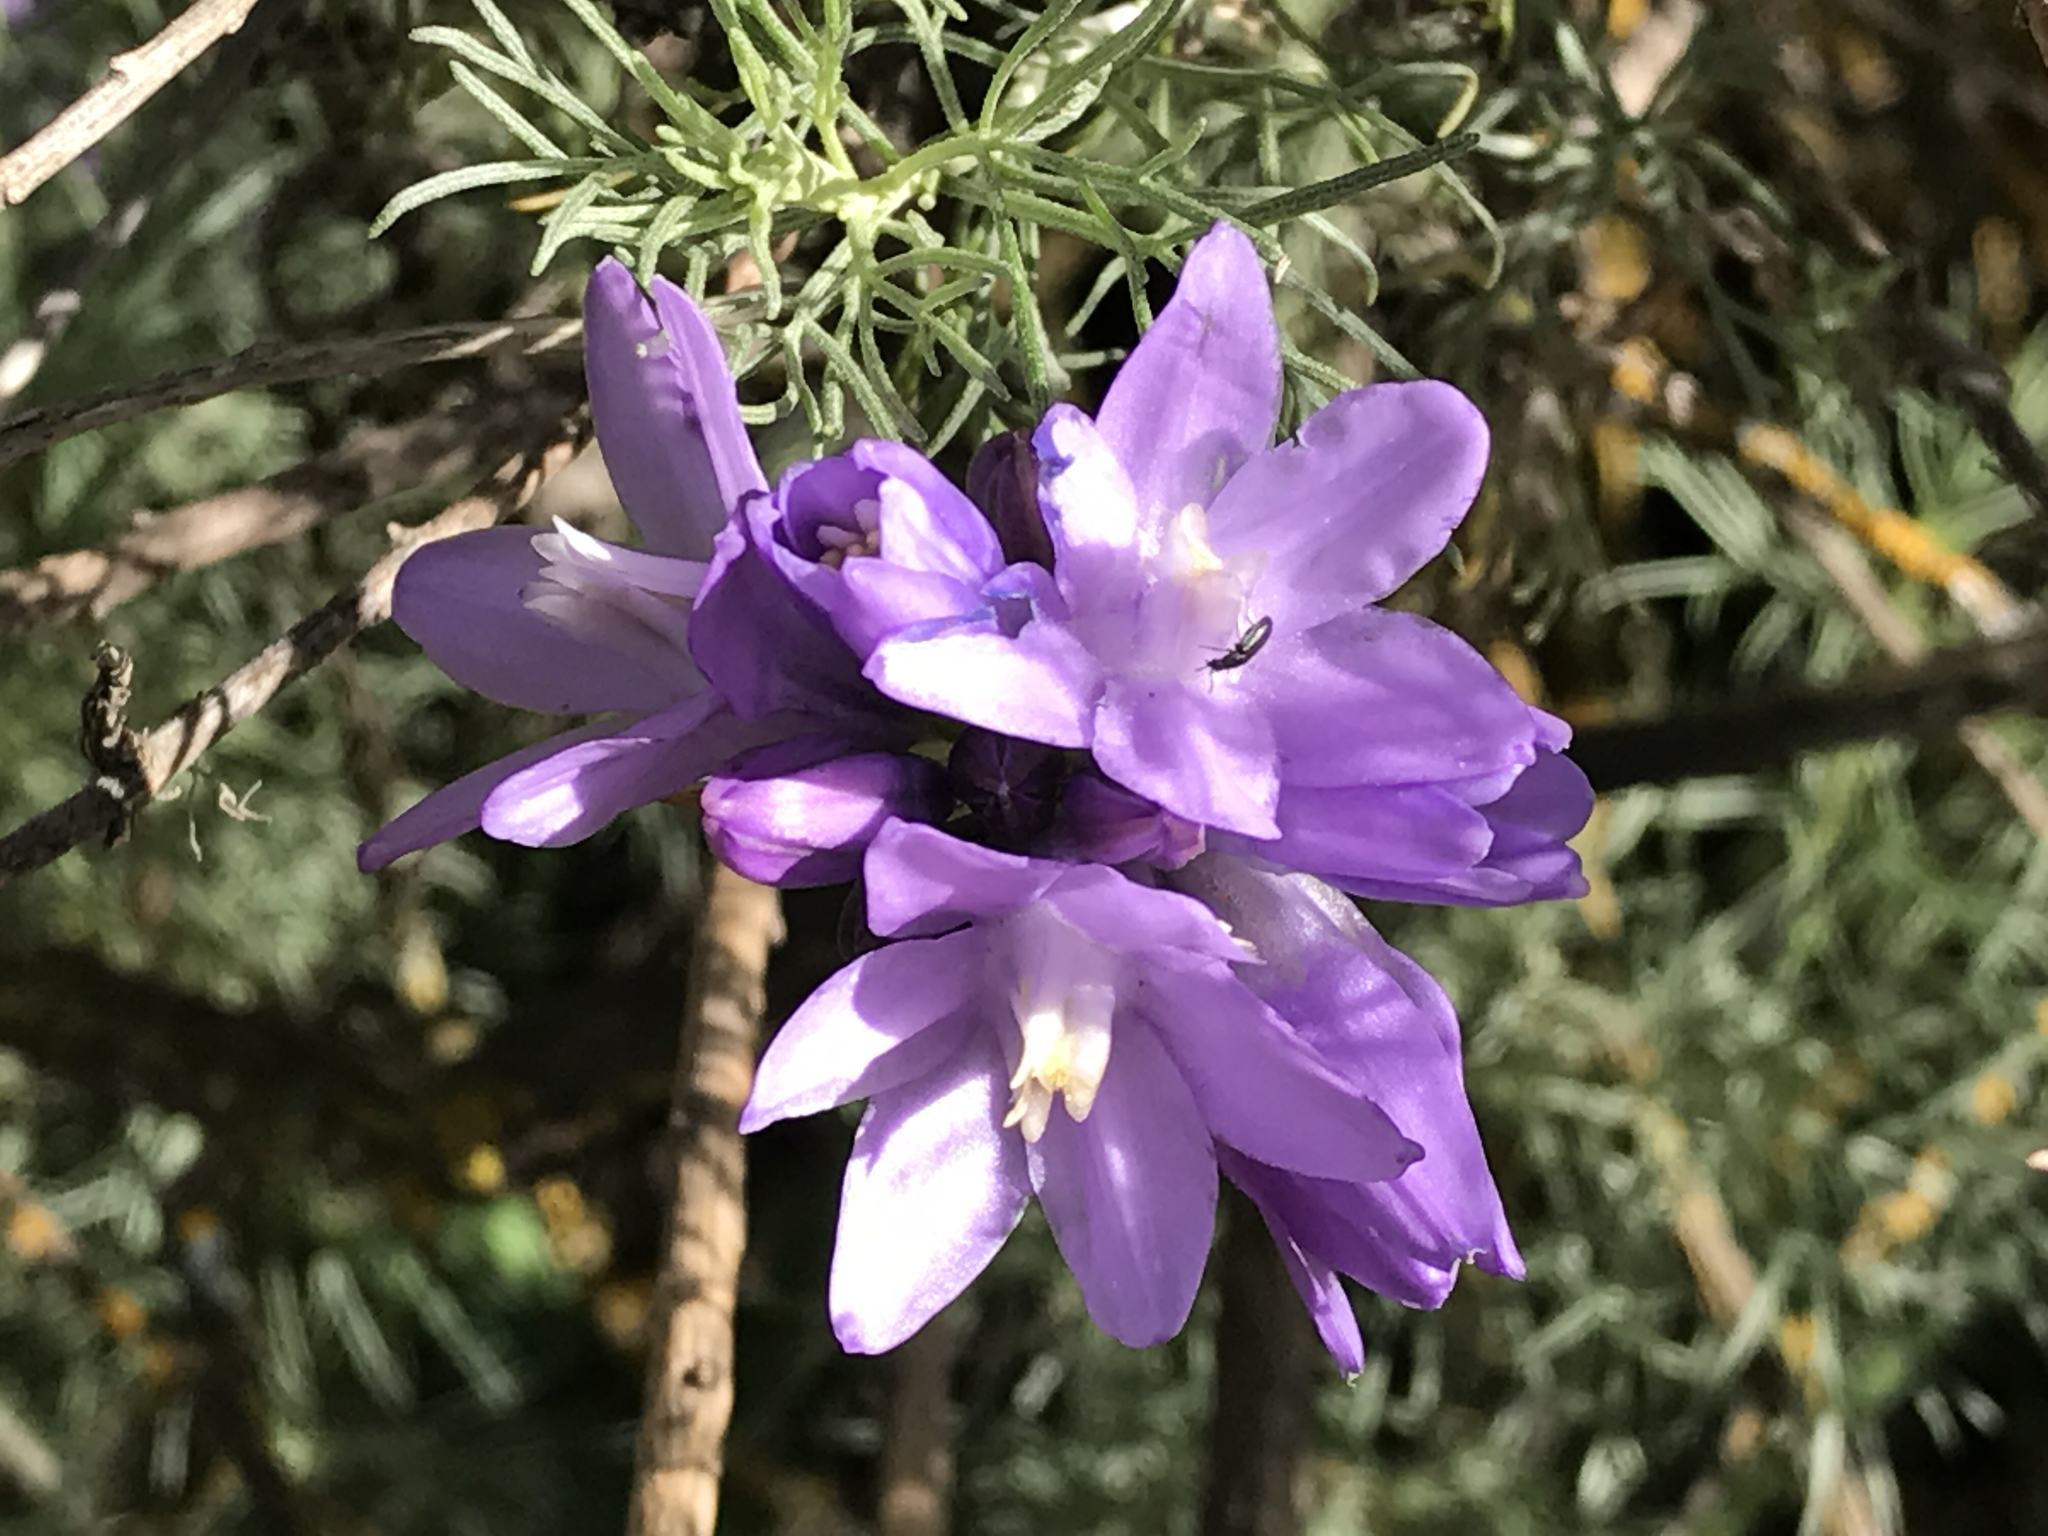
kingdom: Plantae
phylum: Tracheophyta
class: Liliopsida
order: Asparagales
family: Asparagaceae
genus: Dipterostemon
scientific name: Dipterostemon capitatus
